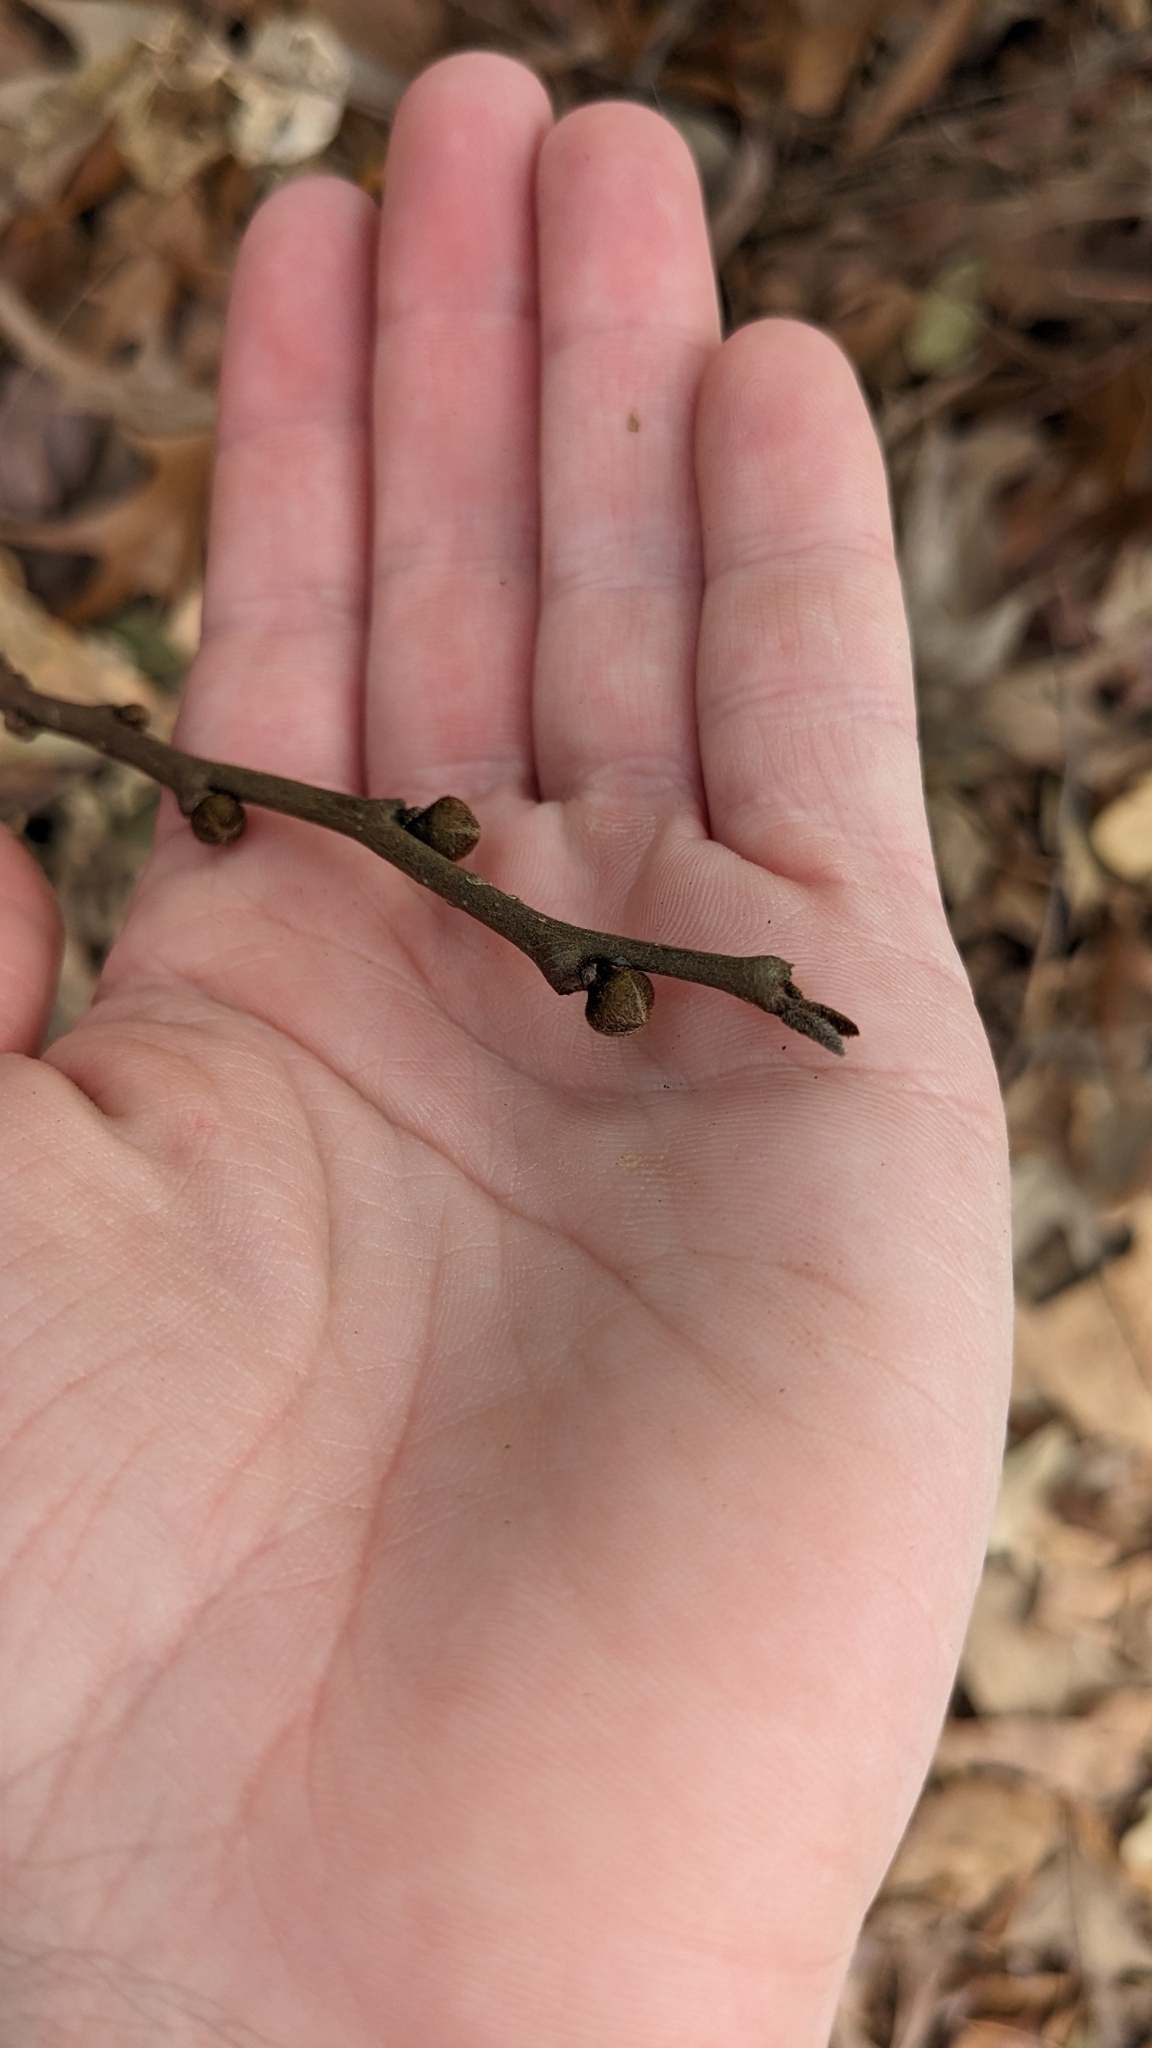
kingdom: Plantae
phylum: Tracheophyta
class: Magnoliopsida
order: Magnoliales
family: Annonaceae
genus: Asimina
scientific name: Asimina parviflora
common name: Dwarf pawpaw
